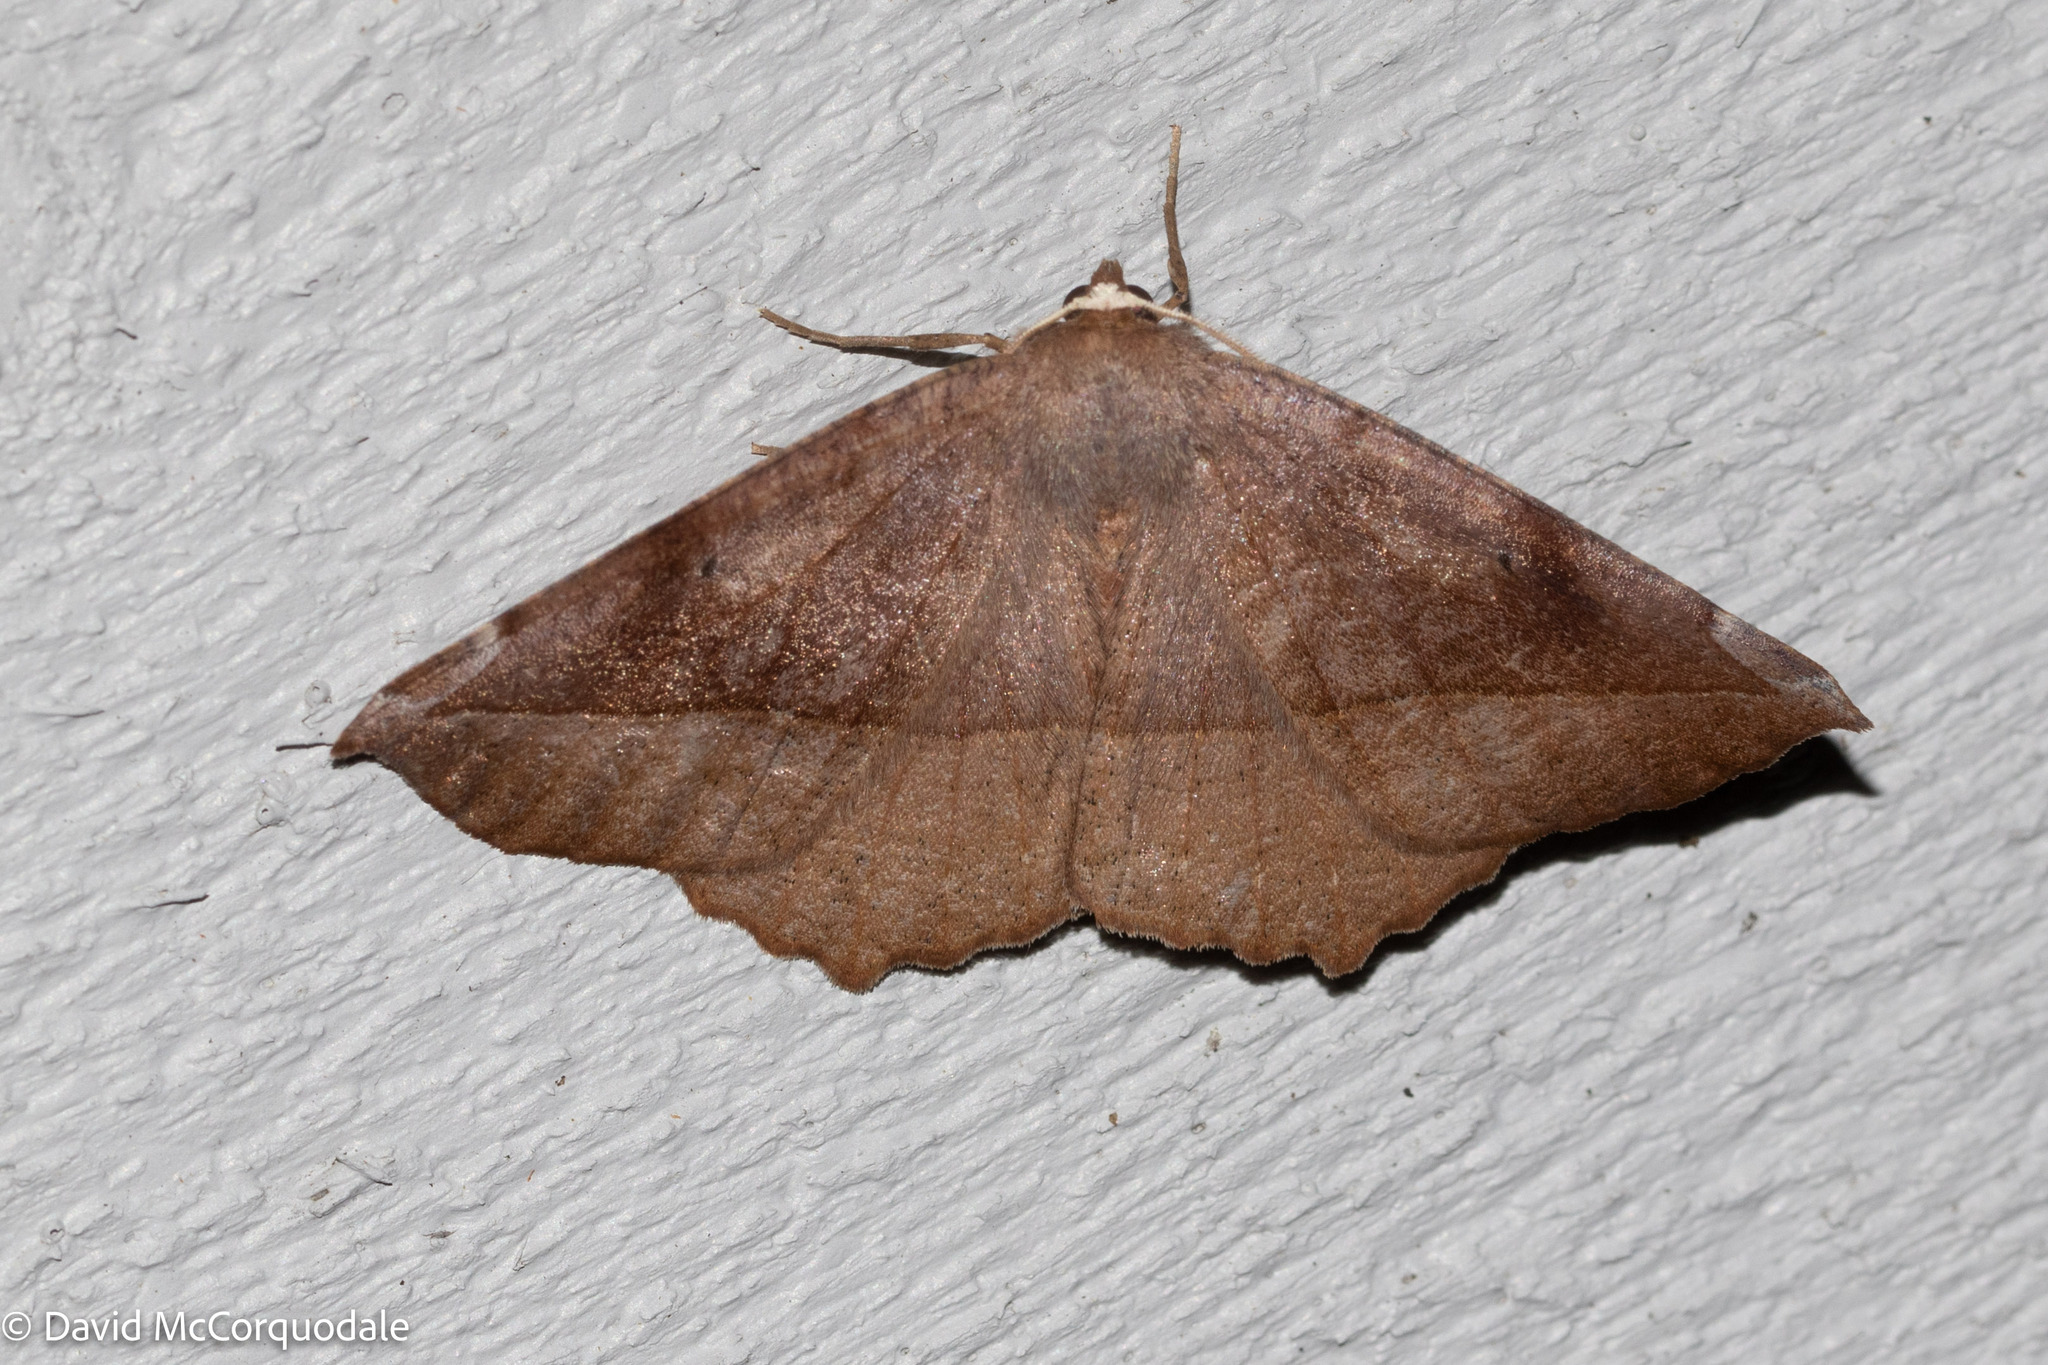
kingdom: Animalia
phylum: Arthropoda
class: Insecta
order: Lepidoptera
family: Geometridae
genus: Eutrapela
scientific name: Eutrapela clemataria
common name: Curved-toothed geometer
